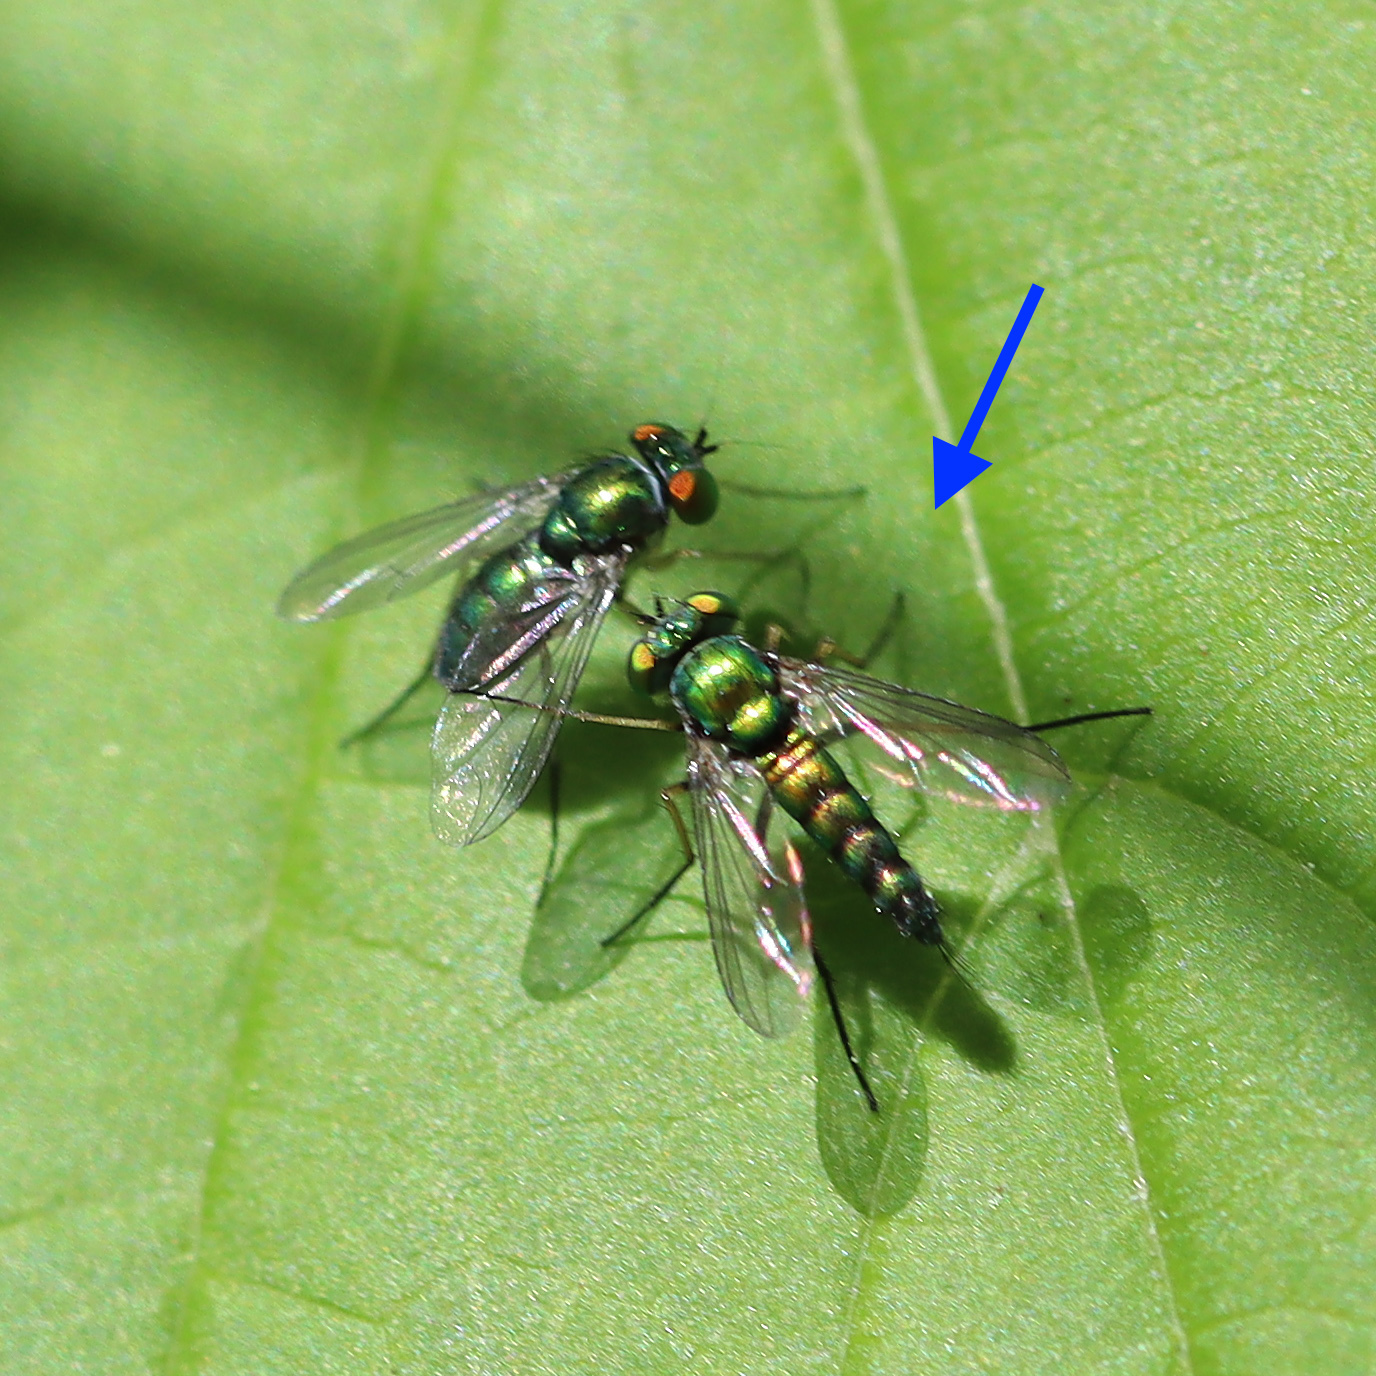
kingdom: Animalia
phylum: Arthropoda
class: Insecta
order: Diptera
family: Dolichopodidae
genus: Condylostylus
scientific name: Condylostylus caudatus
